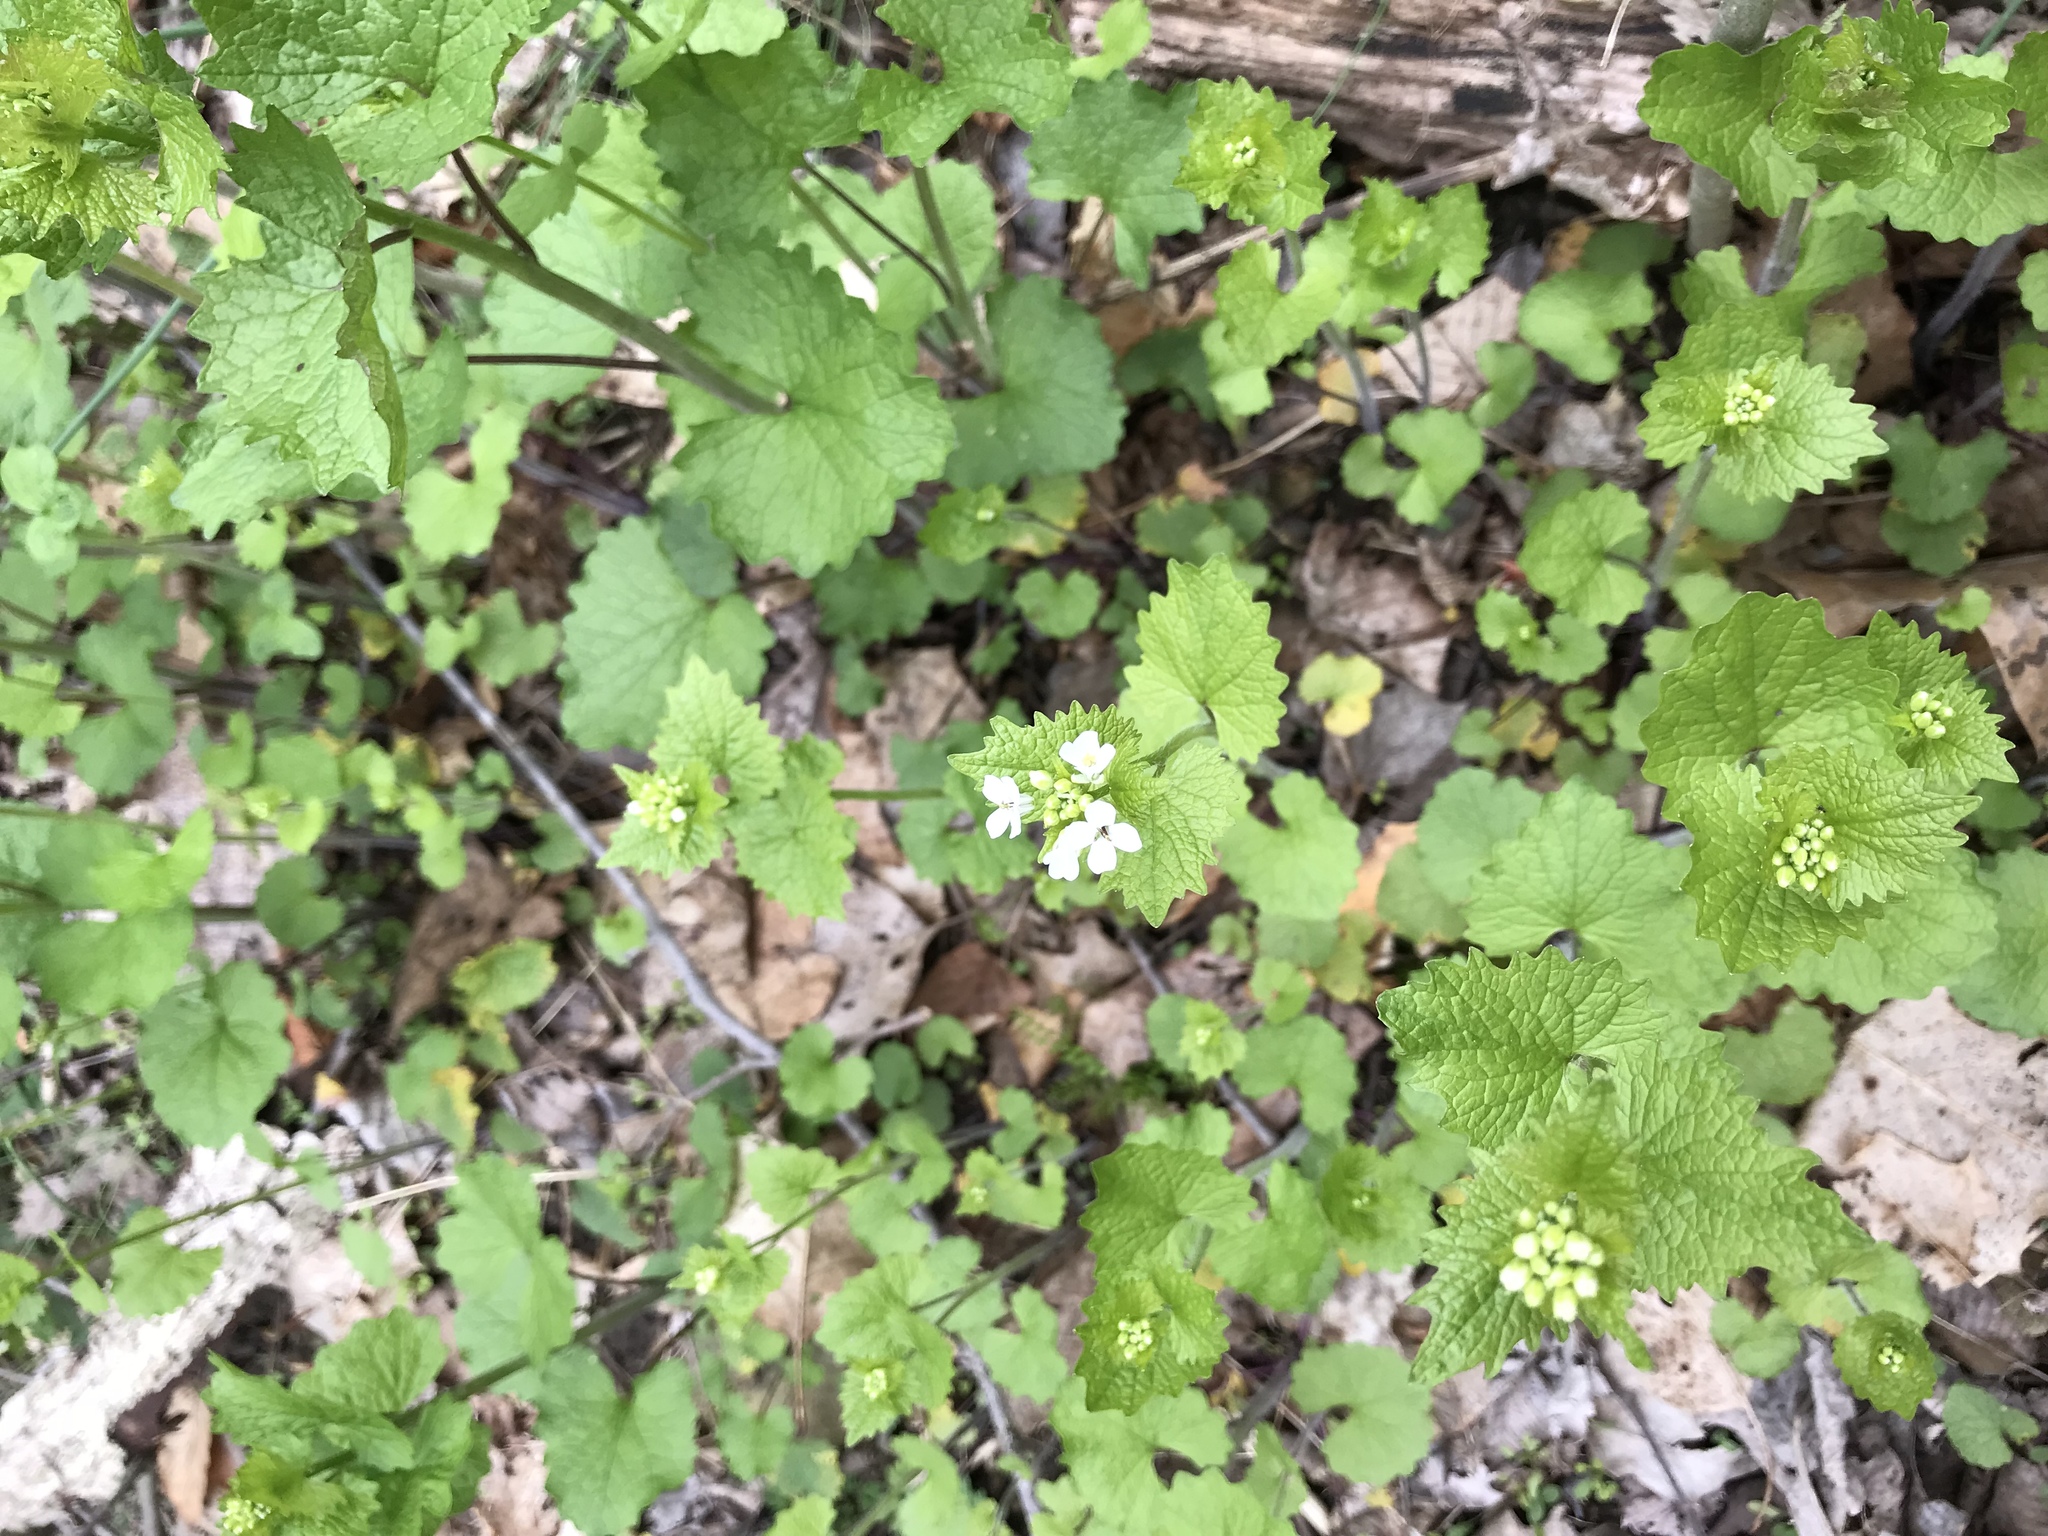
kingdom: Plantae
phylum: Tracheophyta
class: Magnoliopsida
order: Brassicales
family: Brassicaceae
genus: Alliaria
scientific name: Alliaria petiolata
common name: Garlic mustard
